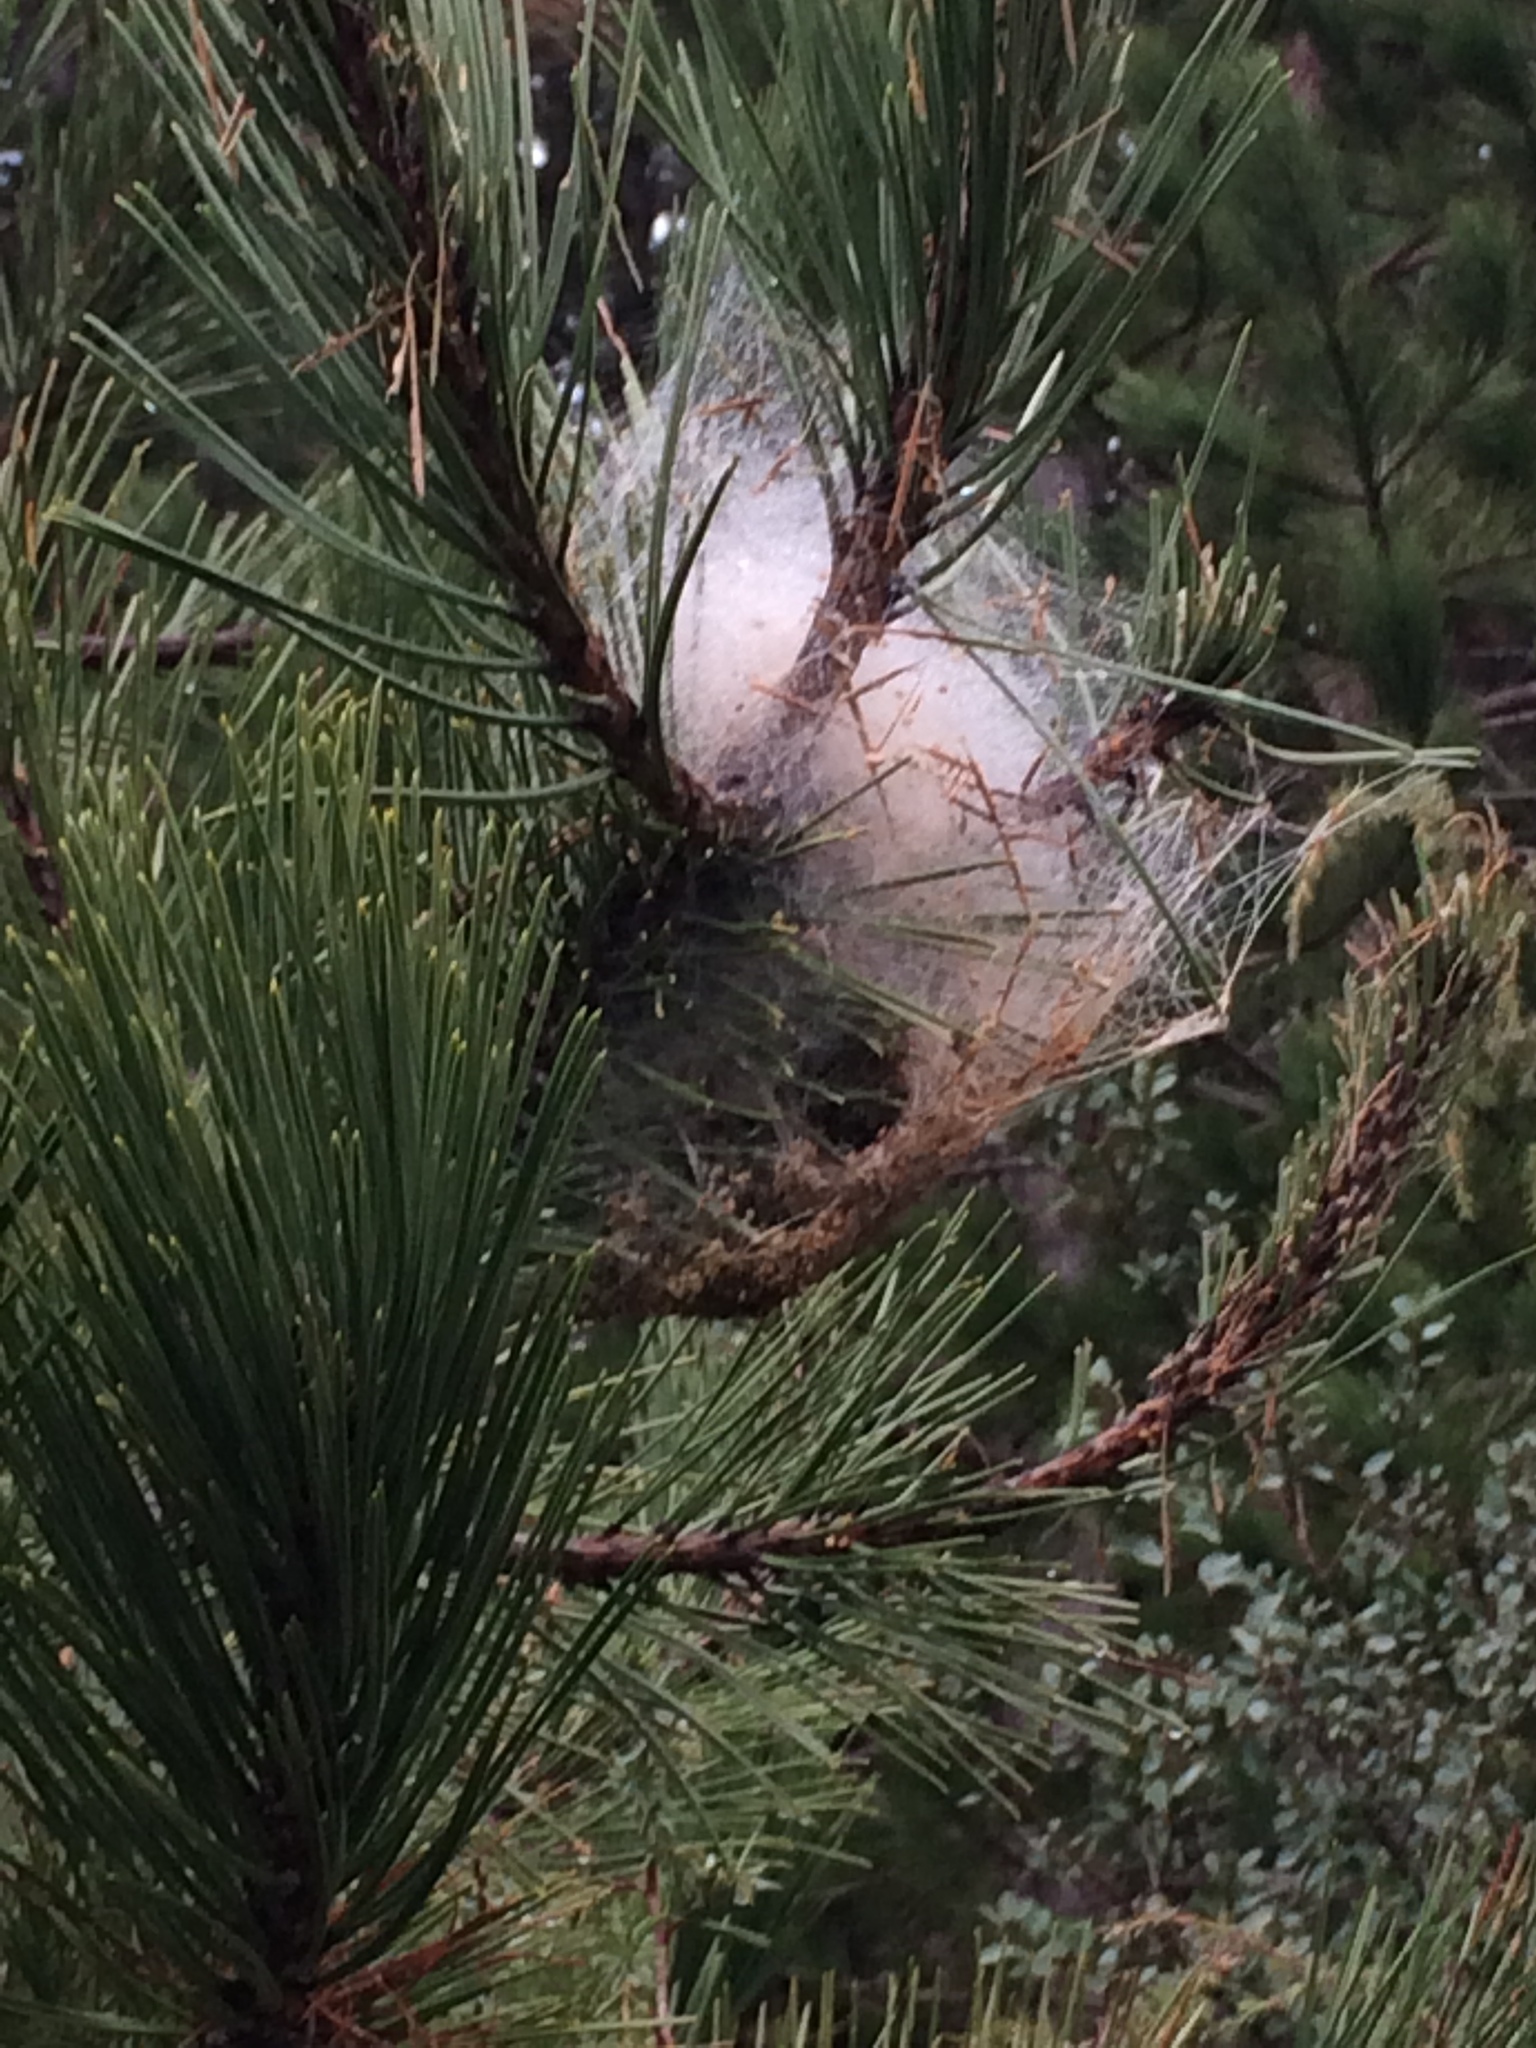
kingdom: Animalia
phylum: Arthropoda
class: Insecta
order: Lepidoptera
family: Notodontidae
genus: Thaumetopoea
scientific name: Thaumetopoea pityocampa
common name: Pine processionary
